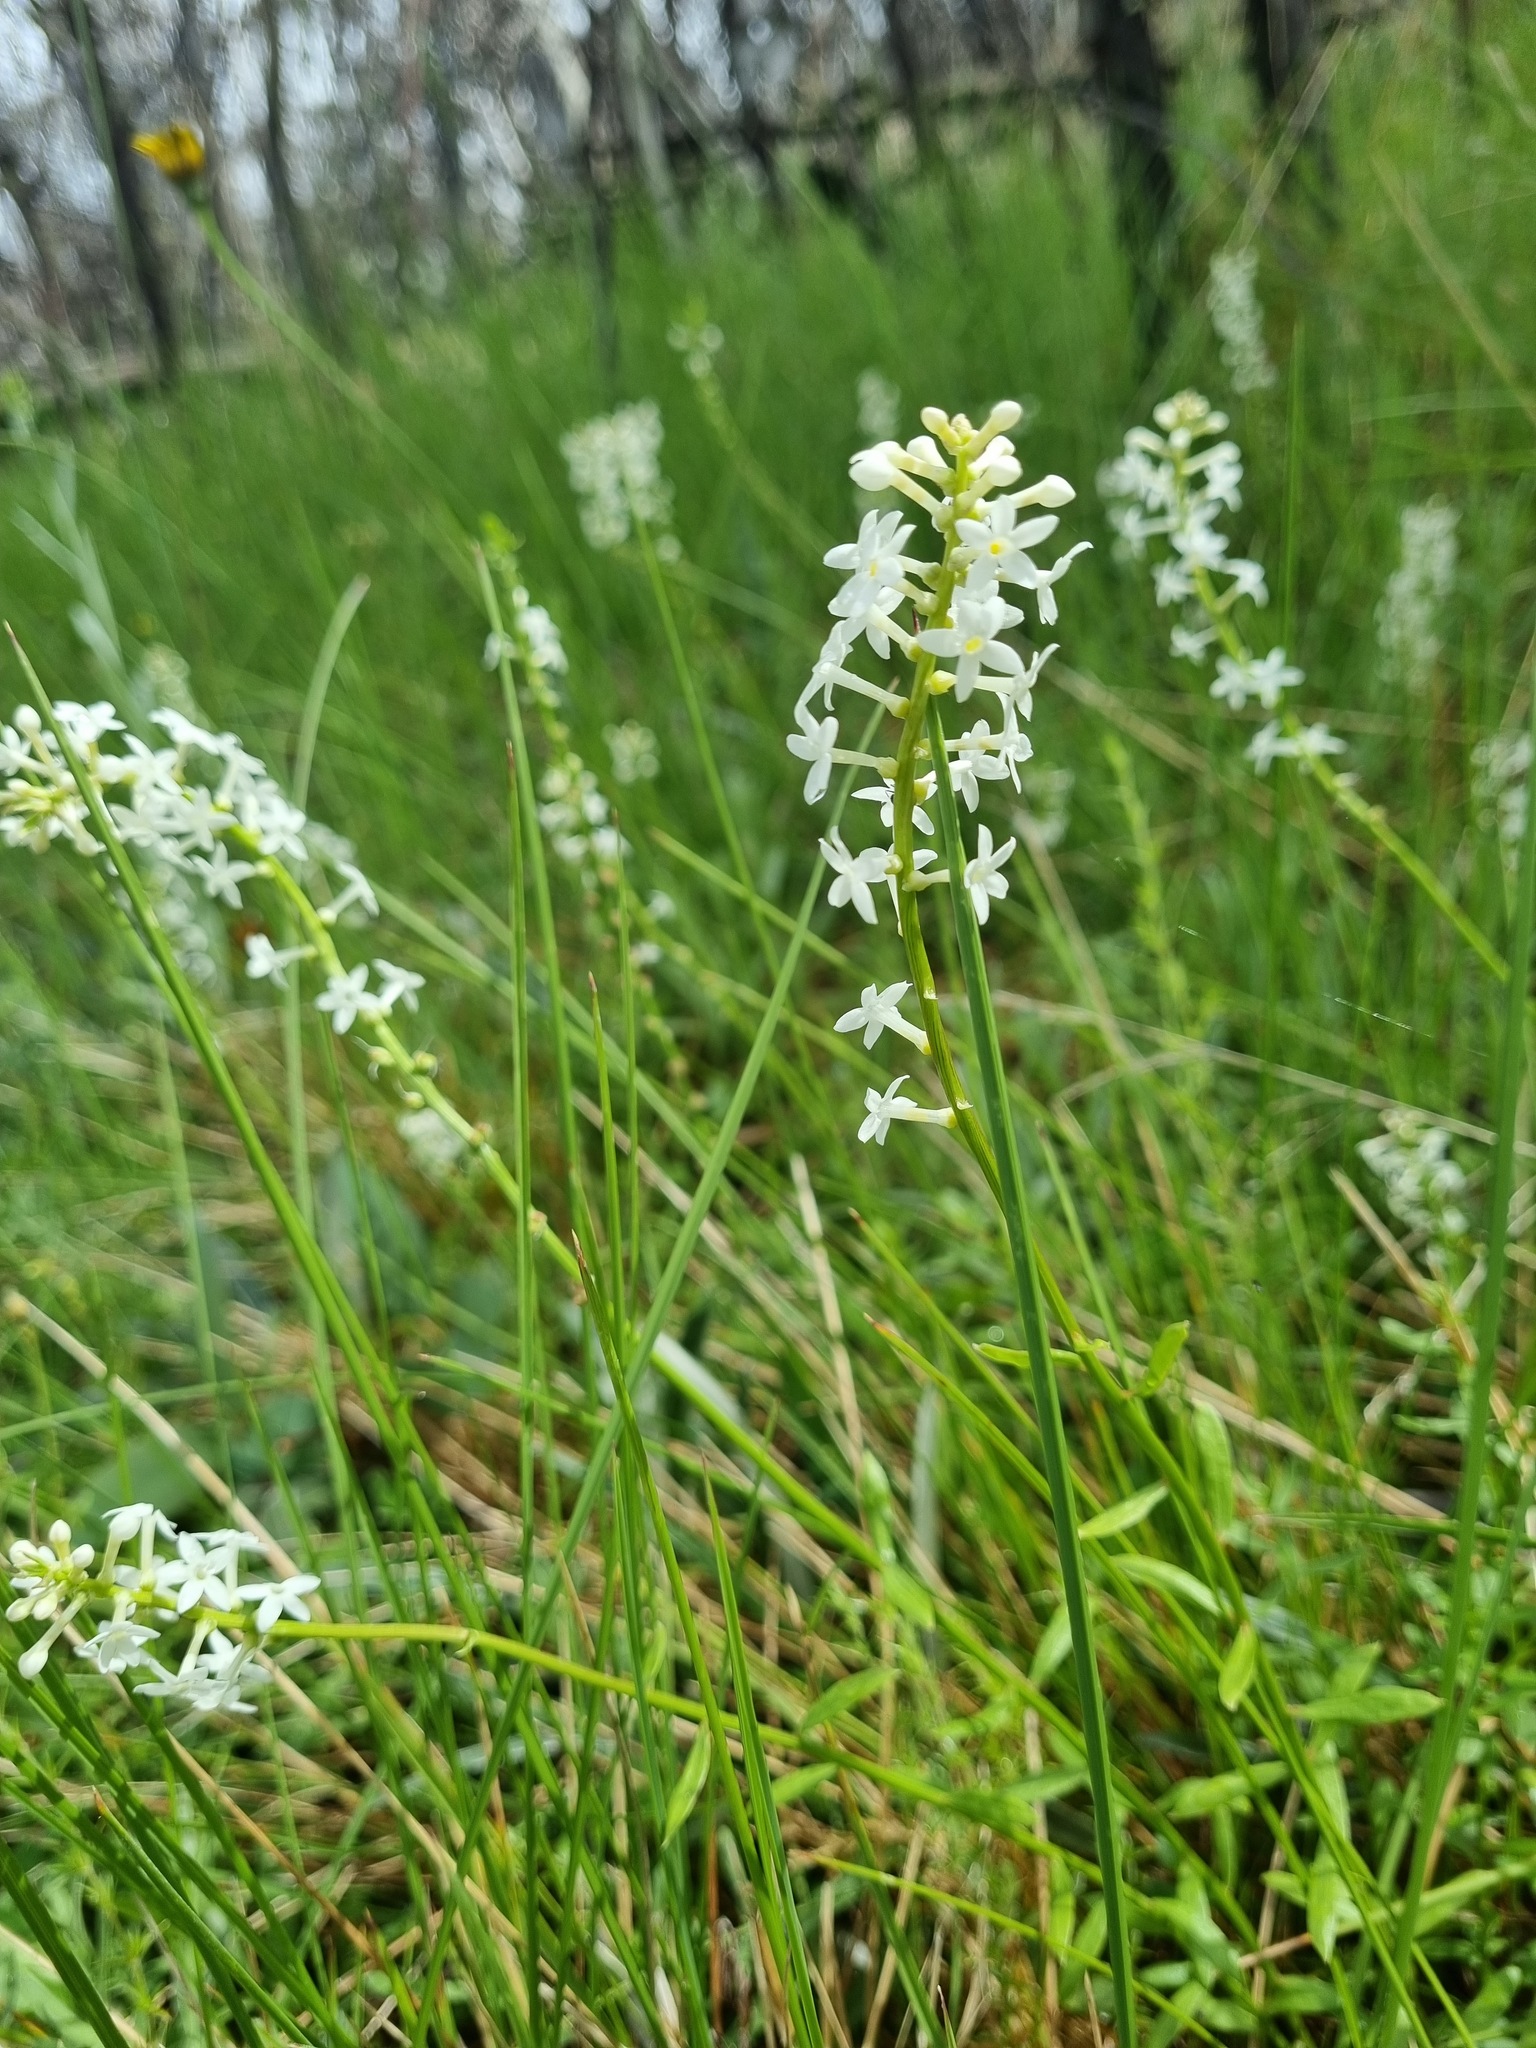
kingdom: Plantae
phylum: Tracheophyta
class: Magnoliopsida
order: Celastrales
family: Celastraceae
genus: Stackhousia
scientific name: Stackhousia monogyna
